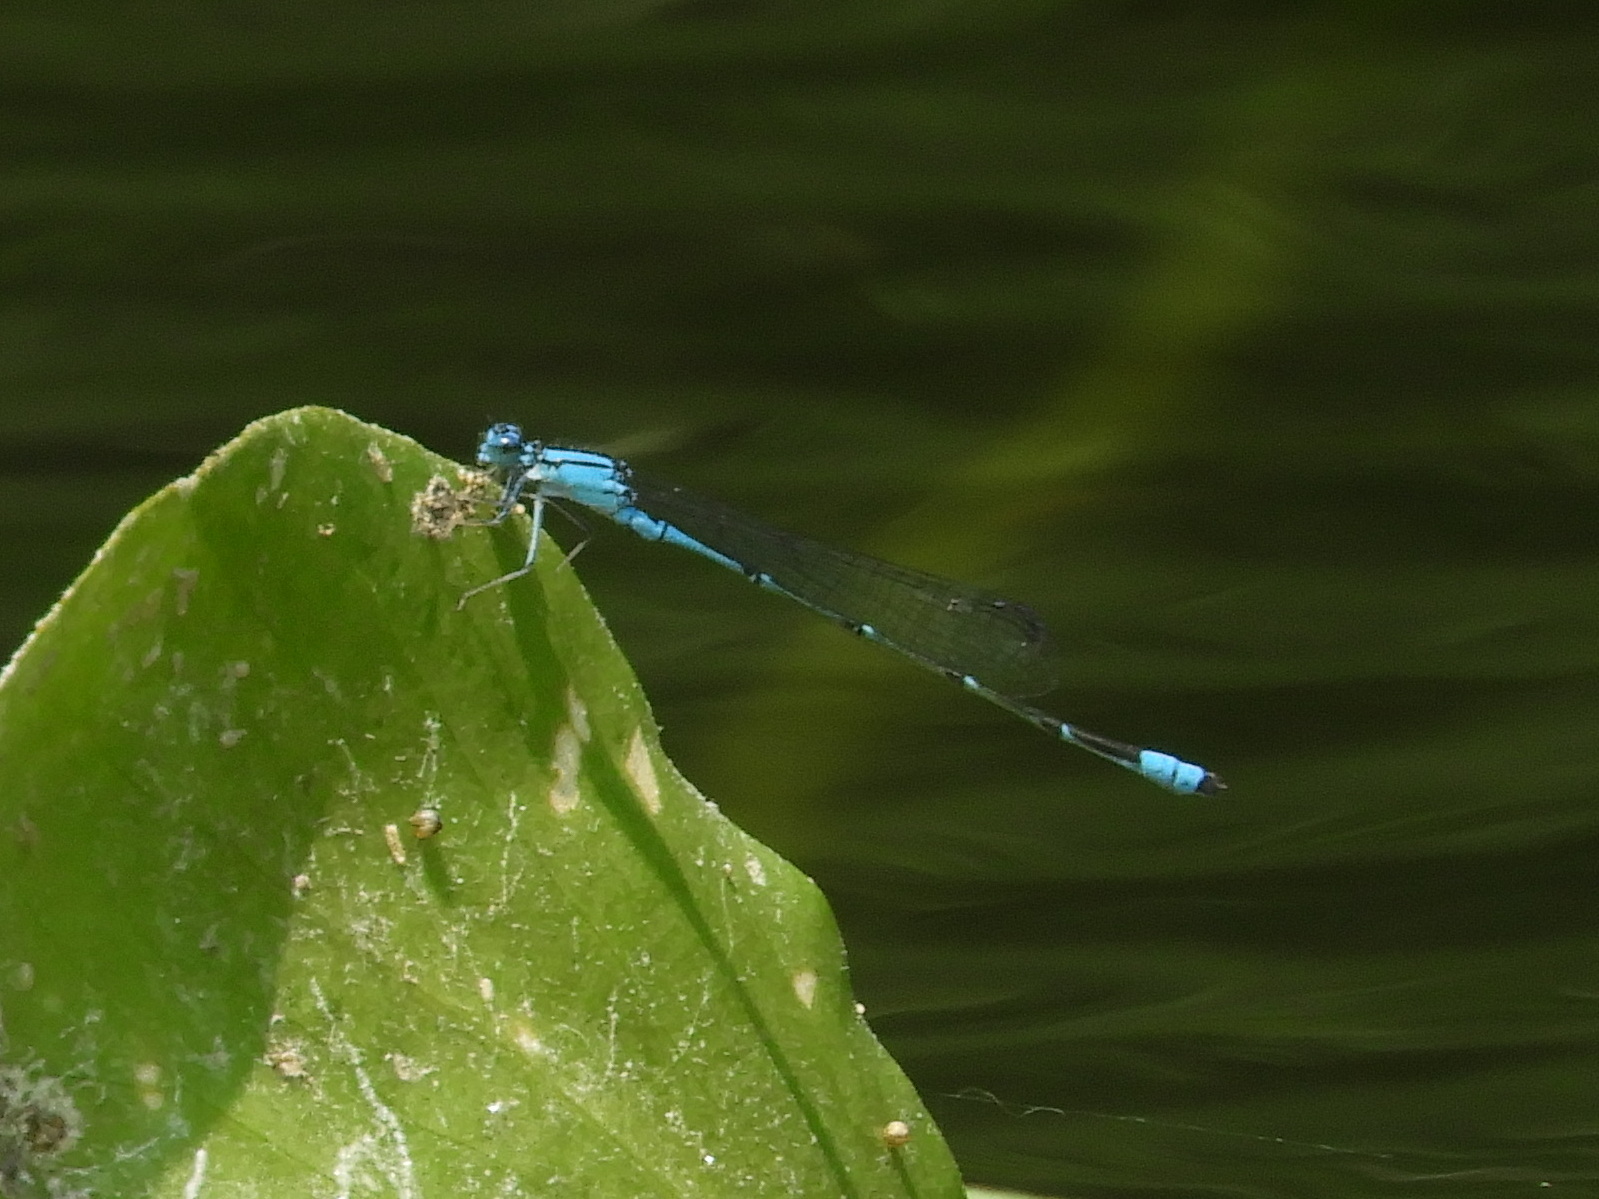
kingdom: Animalia
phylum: Arthropoda
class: Insecta
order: Odonata
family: Coenagrionidae
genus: Enallagma
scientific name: Enallagma traviatum
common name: Slender bluet
